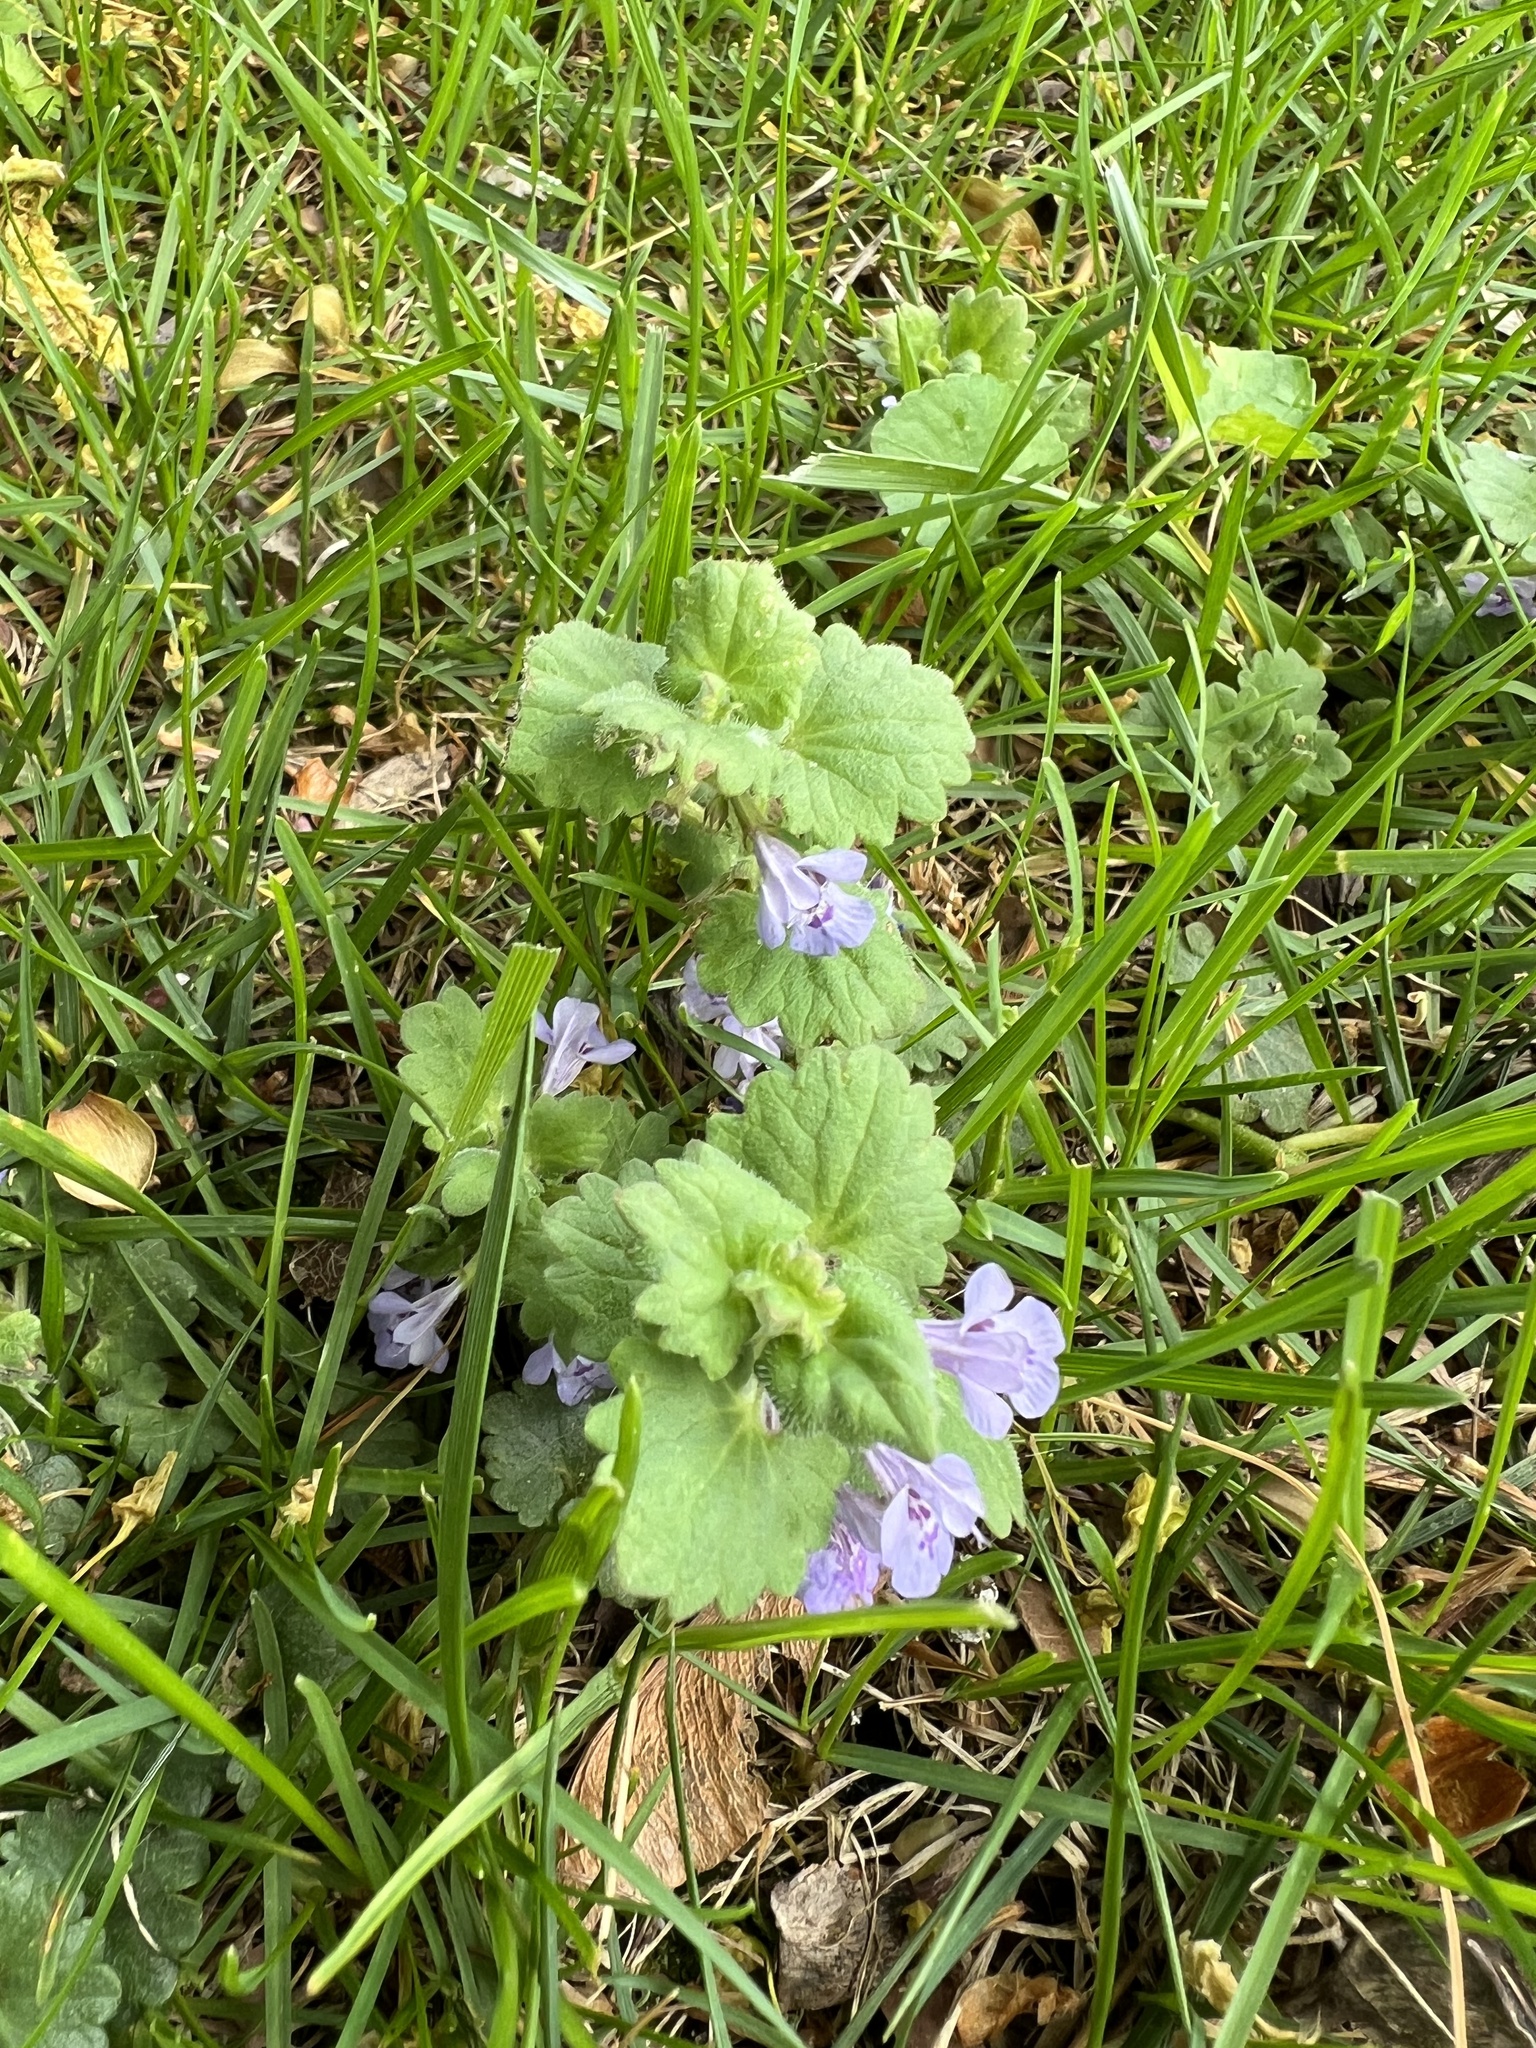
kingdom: Plantae
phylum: Tracheophyta
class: Magnoliopsida
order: Lamiales
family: Lamiaceae
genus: Glechoma
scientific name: Glechoma hederacea
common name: Ground ivy
